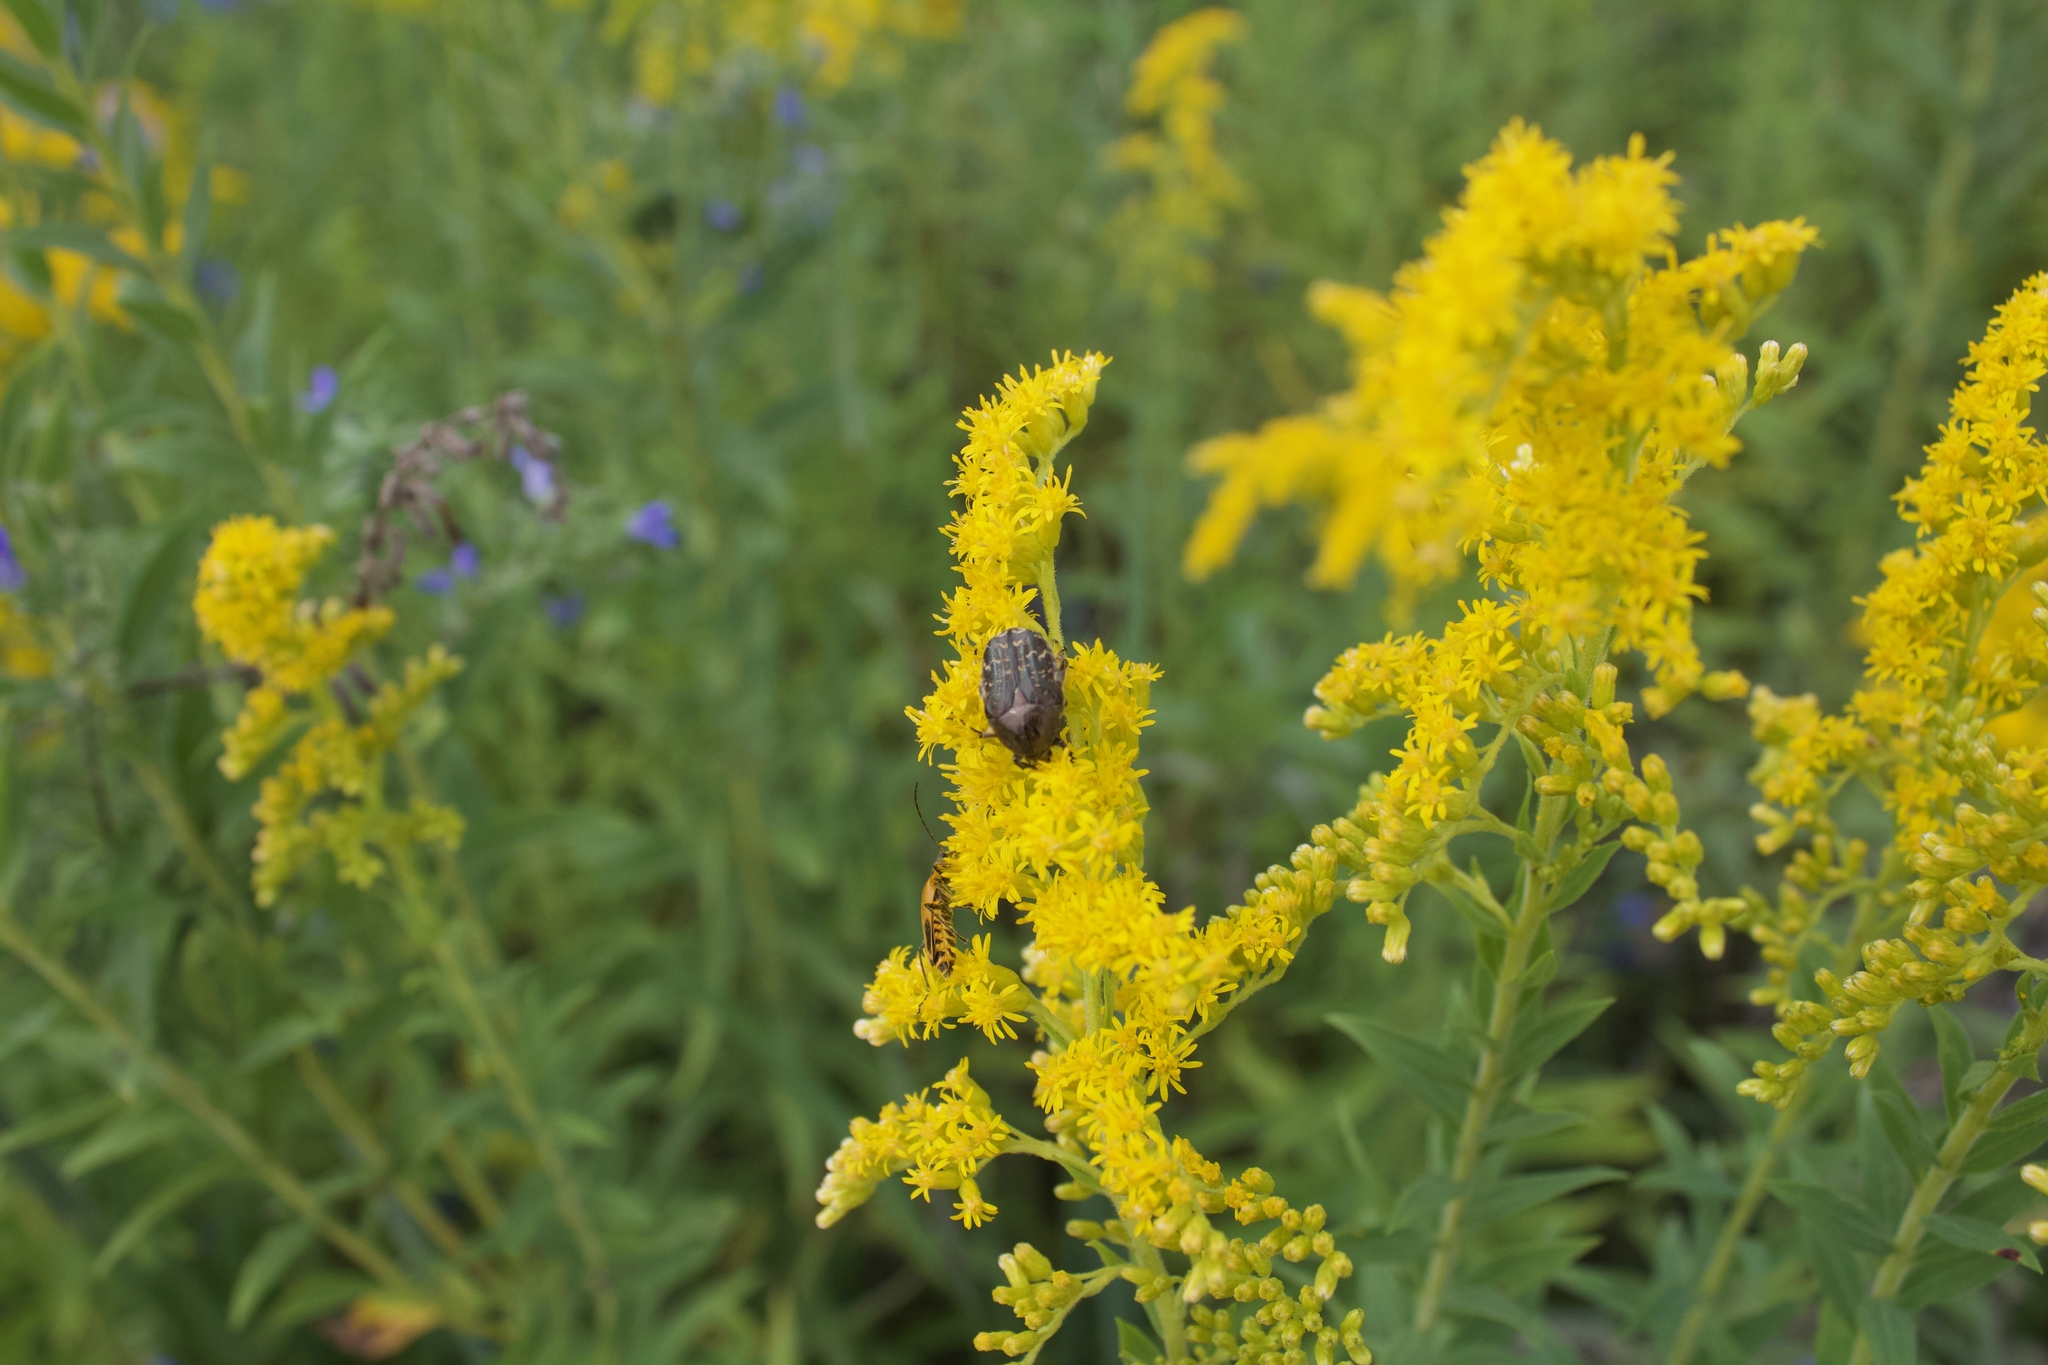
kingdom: Animalia
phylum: Arthropoda
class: Insecta
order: Coleoptera
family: Scarabaeidae
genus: Euphoria
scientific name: Euphoria sepulcralis
